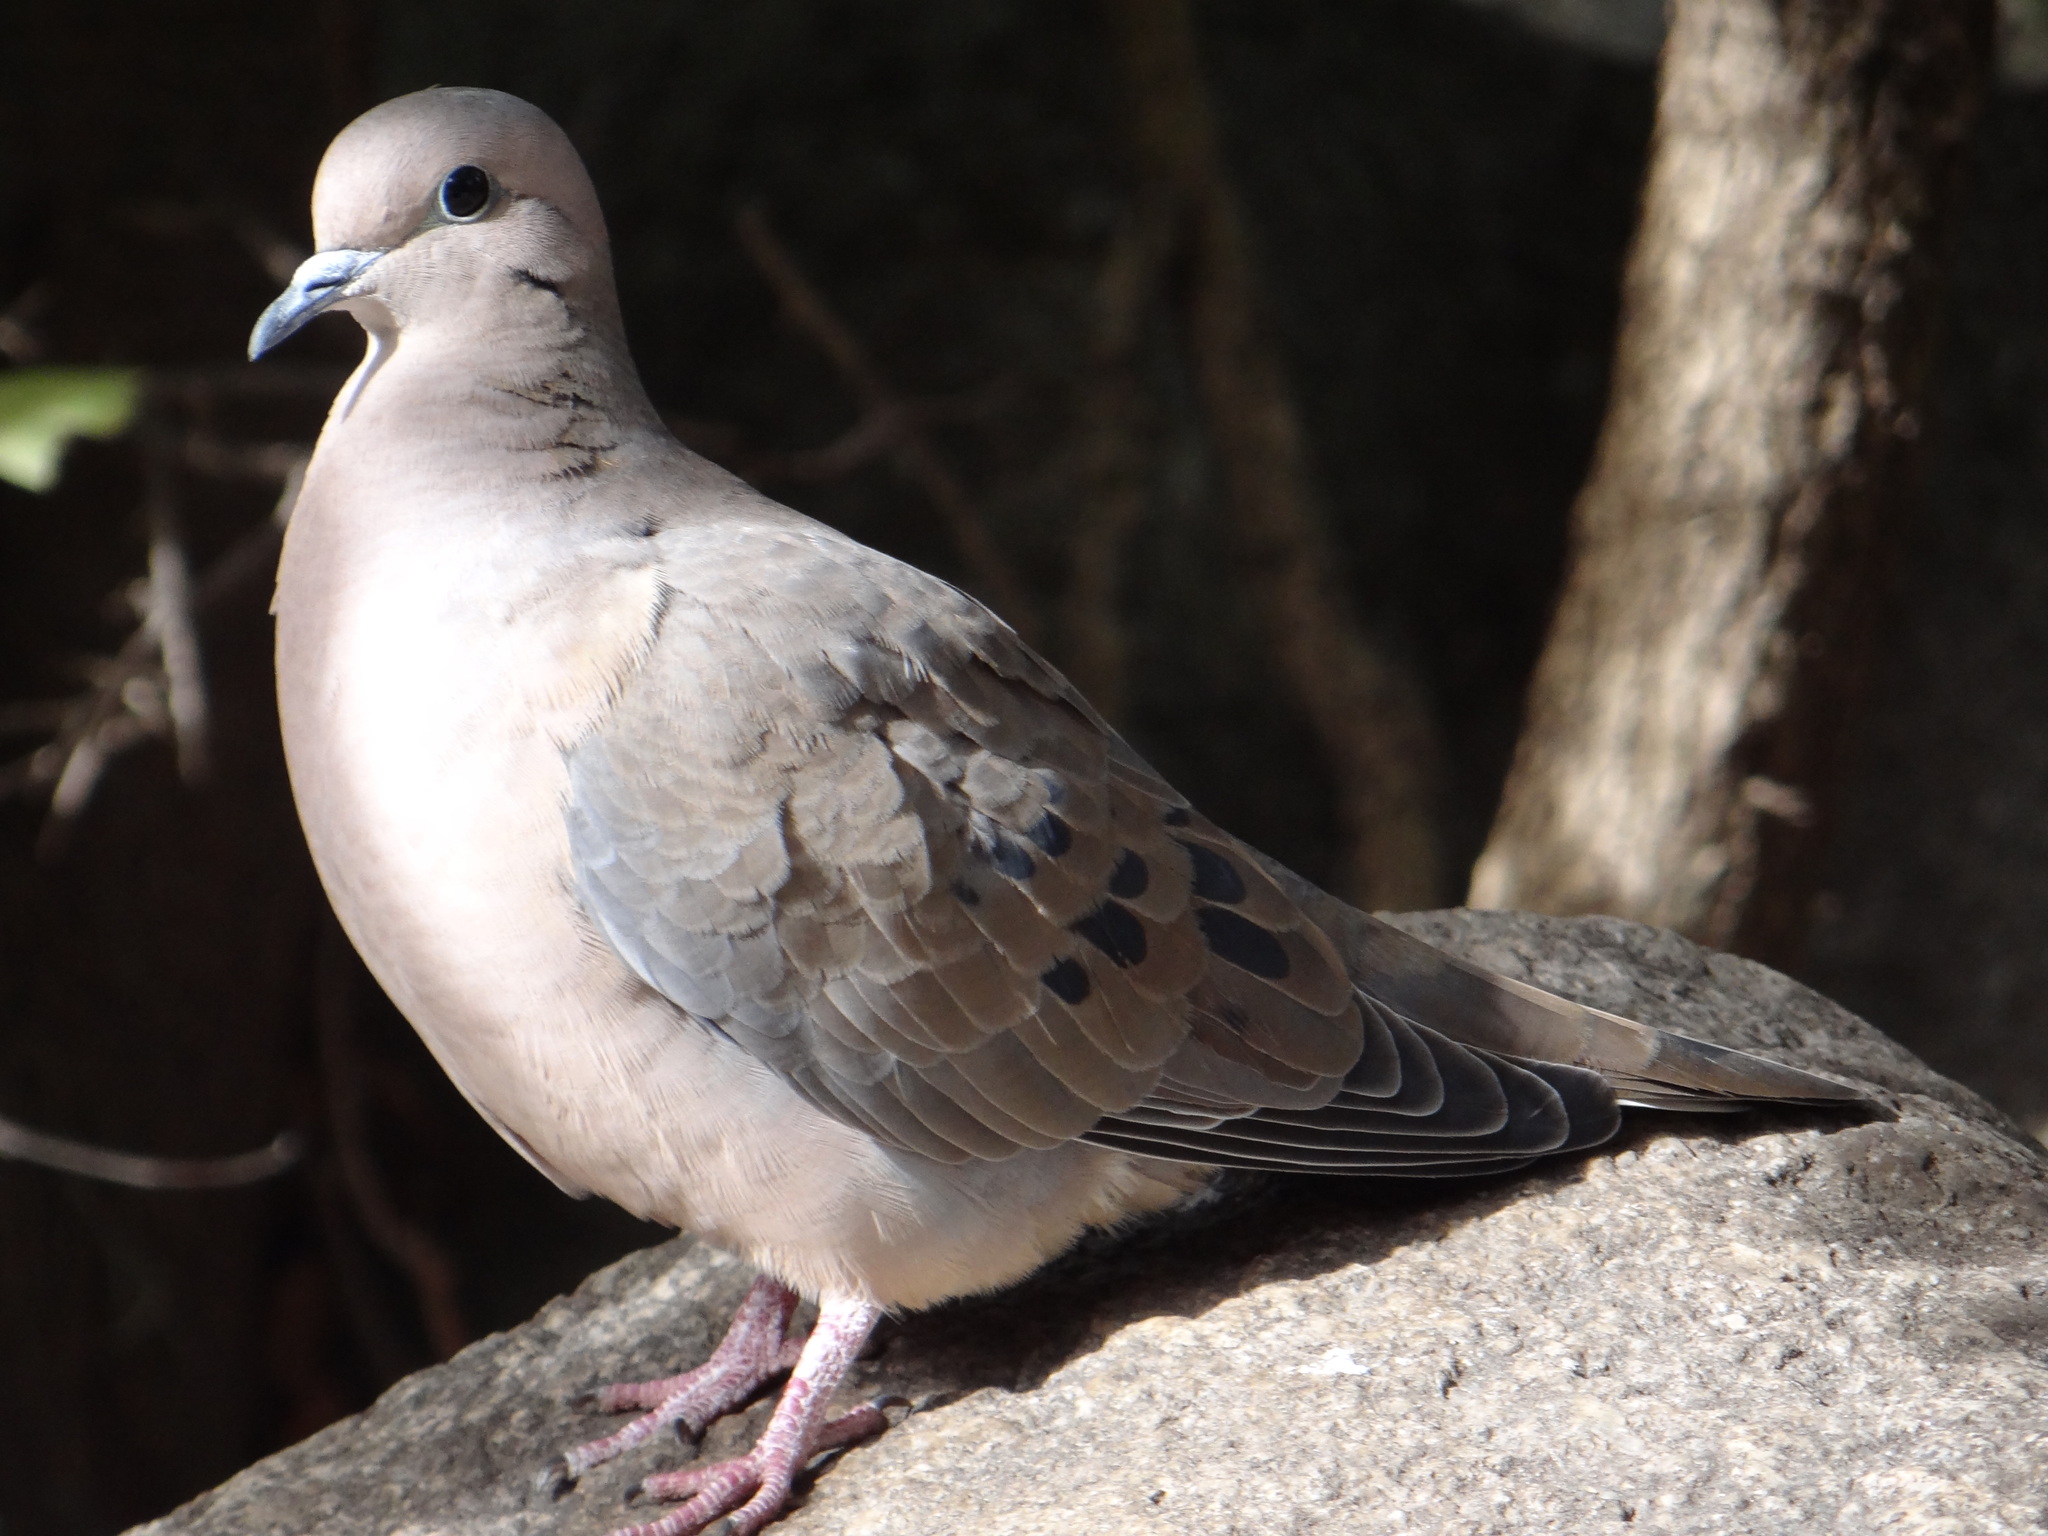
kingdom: Animalia
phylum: Chordata
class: Aves
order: Columbiformes
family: Columbidae
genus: Zenaida
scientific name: Zenaida auriculata
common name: Eared dove
